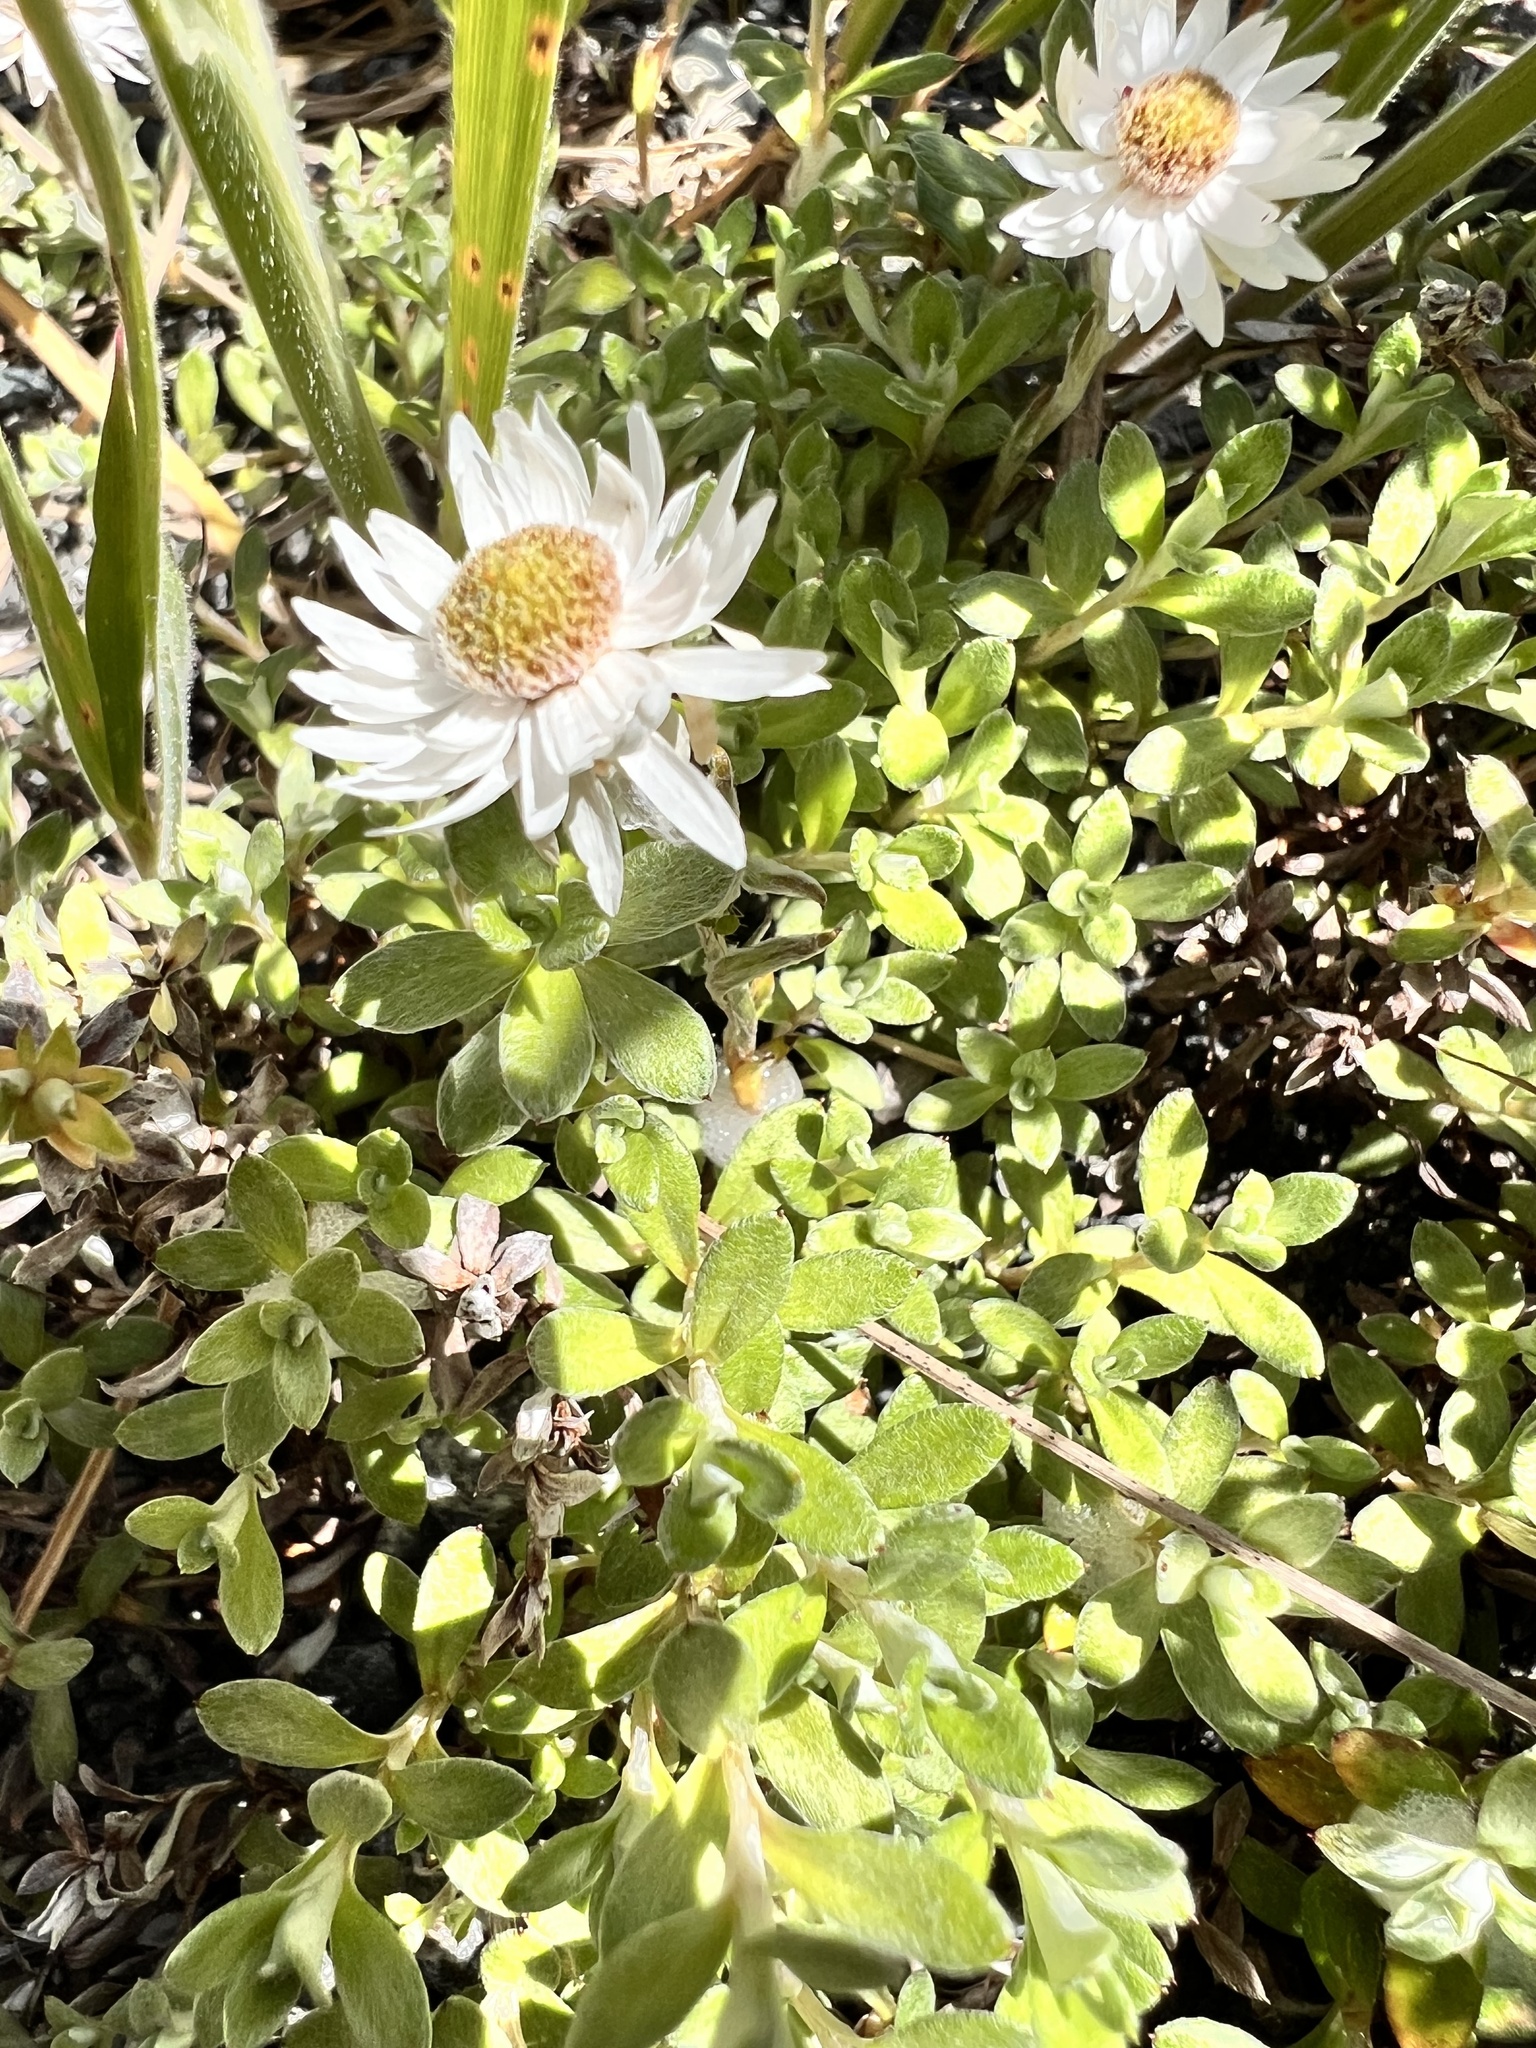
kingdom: Plantae
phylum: Tracheophyta
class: Magnoliopsida
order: Asterales
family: Asteraceae
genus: Anaphalioides
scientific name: Anaphalioides bellidioides
